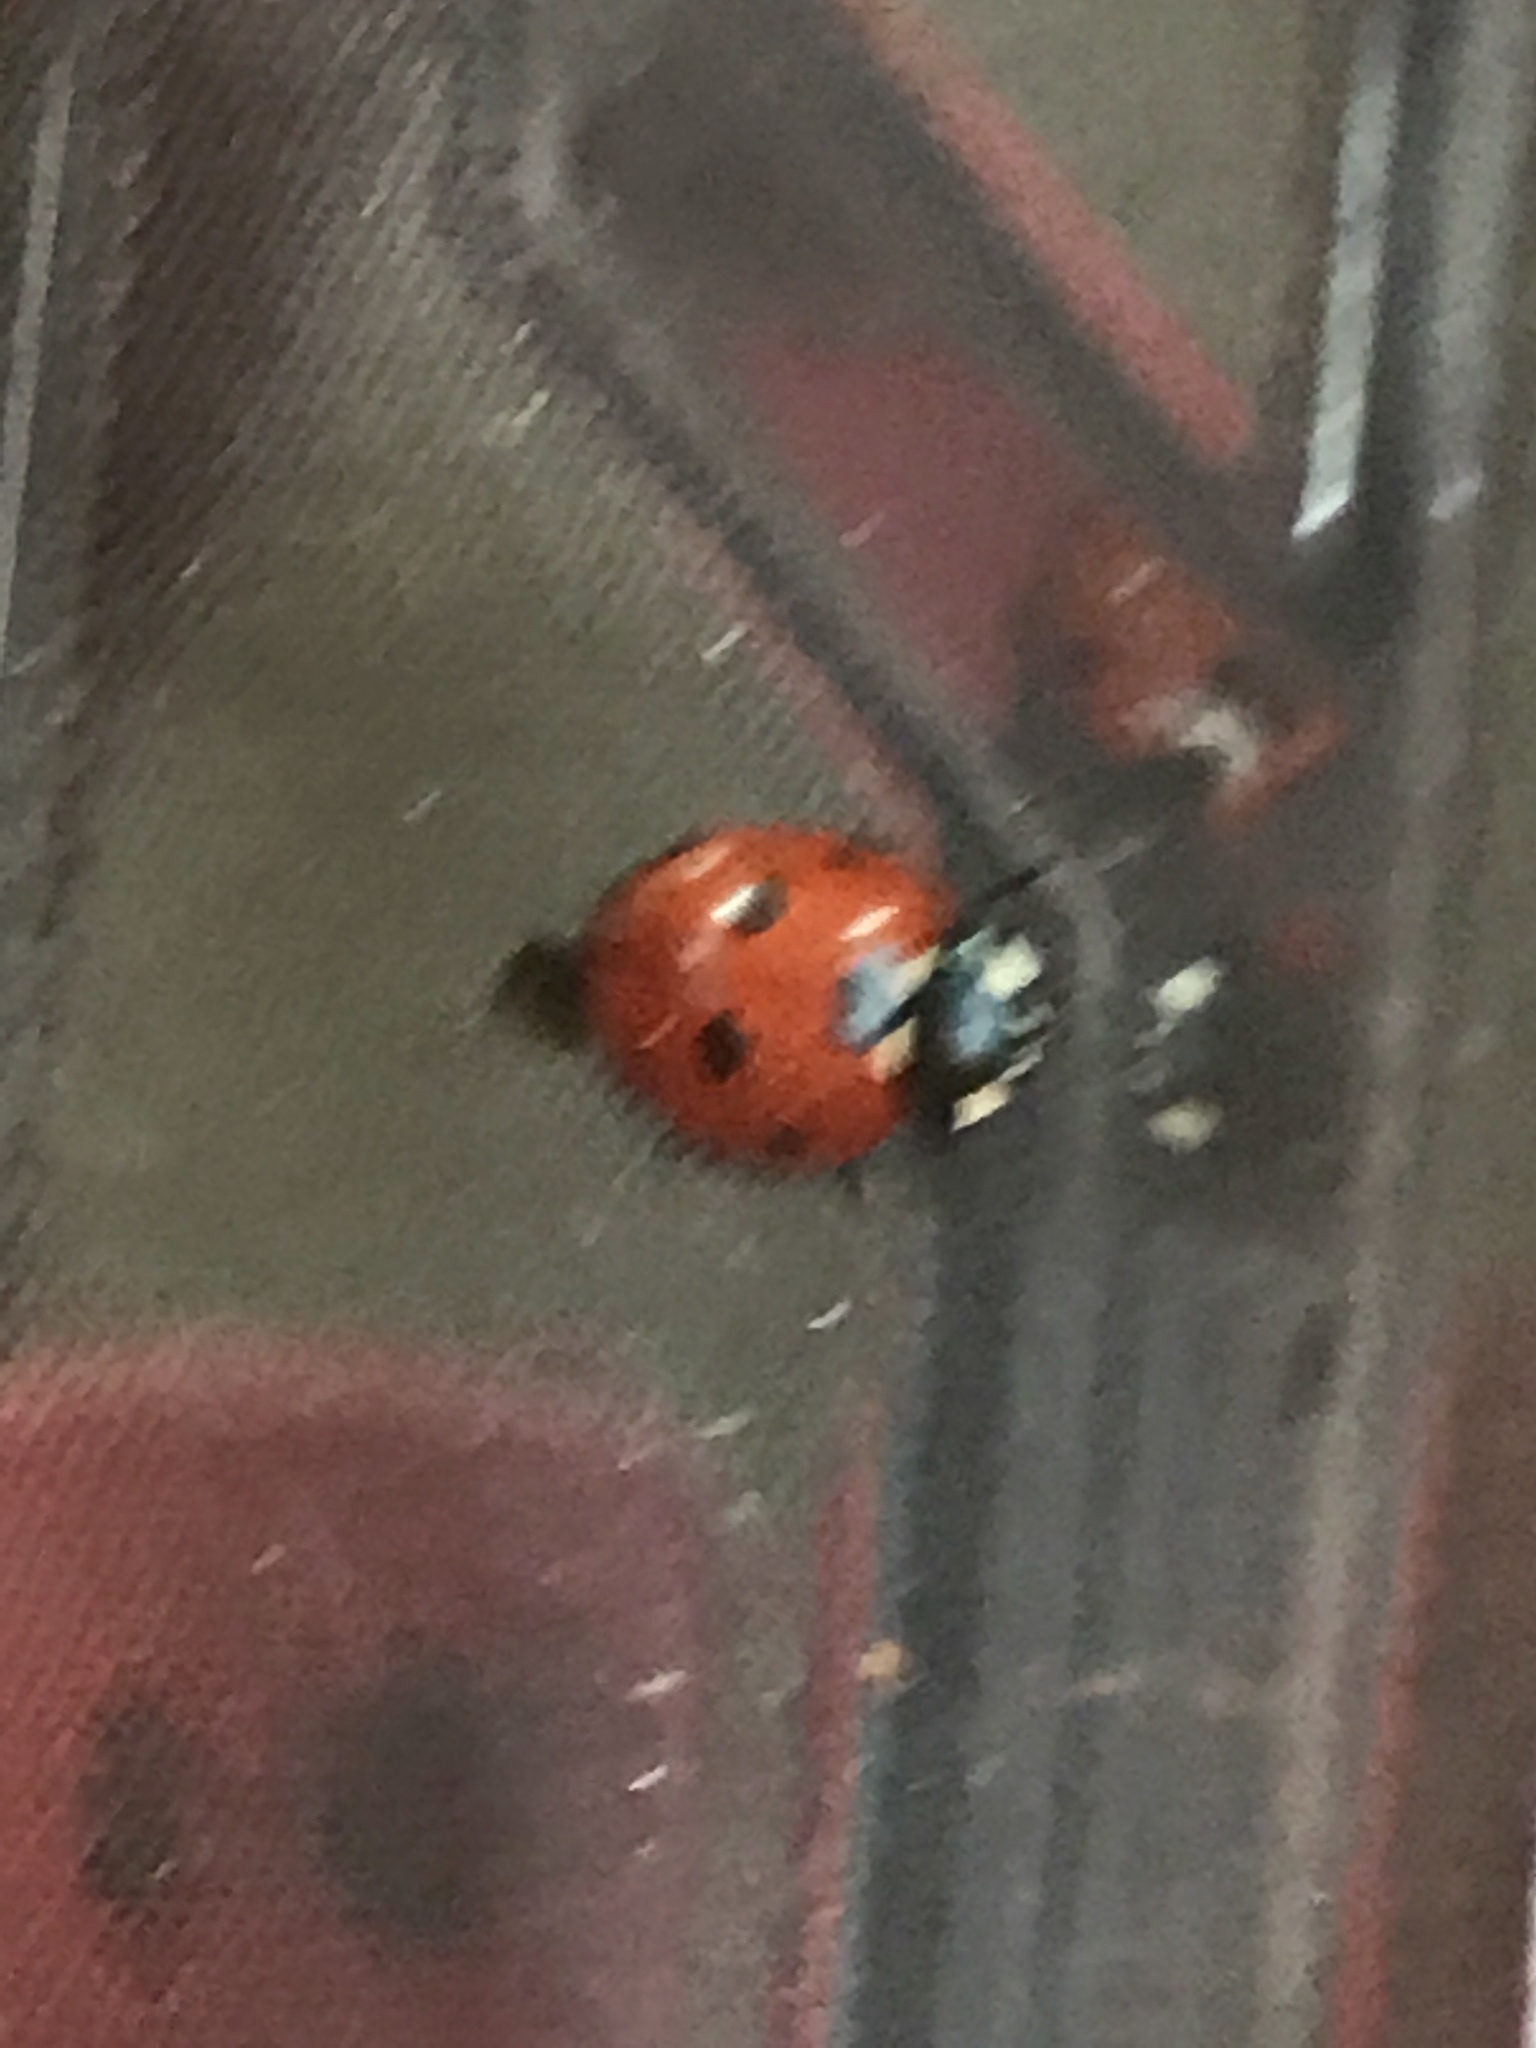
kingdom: Animalia
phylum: Arthropoda
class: Insecta
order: Coleoptera
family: Coccinellidae
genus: Coccinella
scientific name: Coccinella septempunctata
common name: Sevenspotted lady beetle
